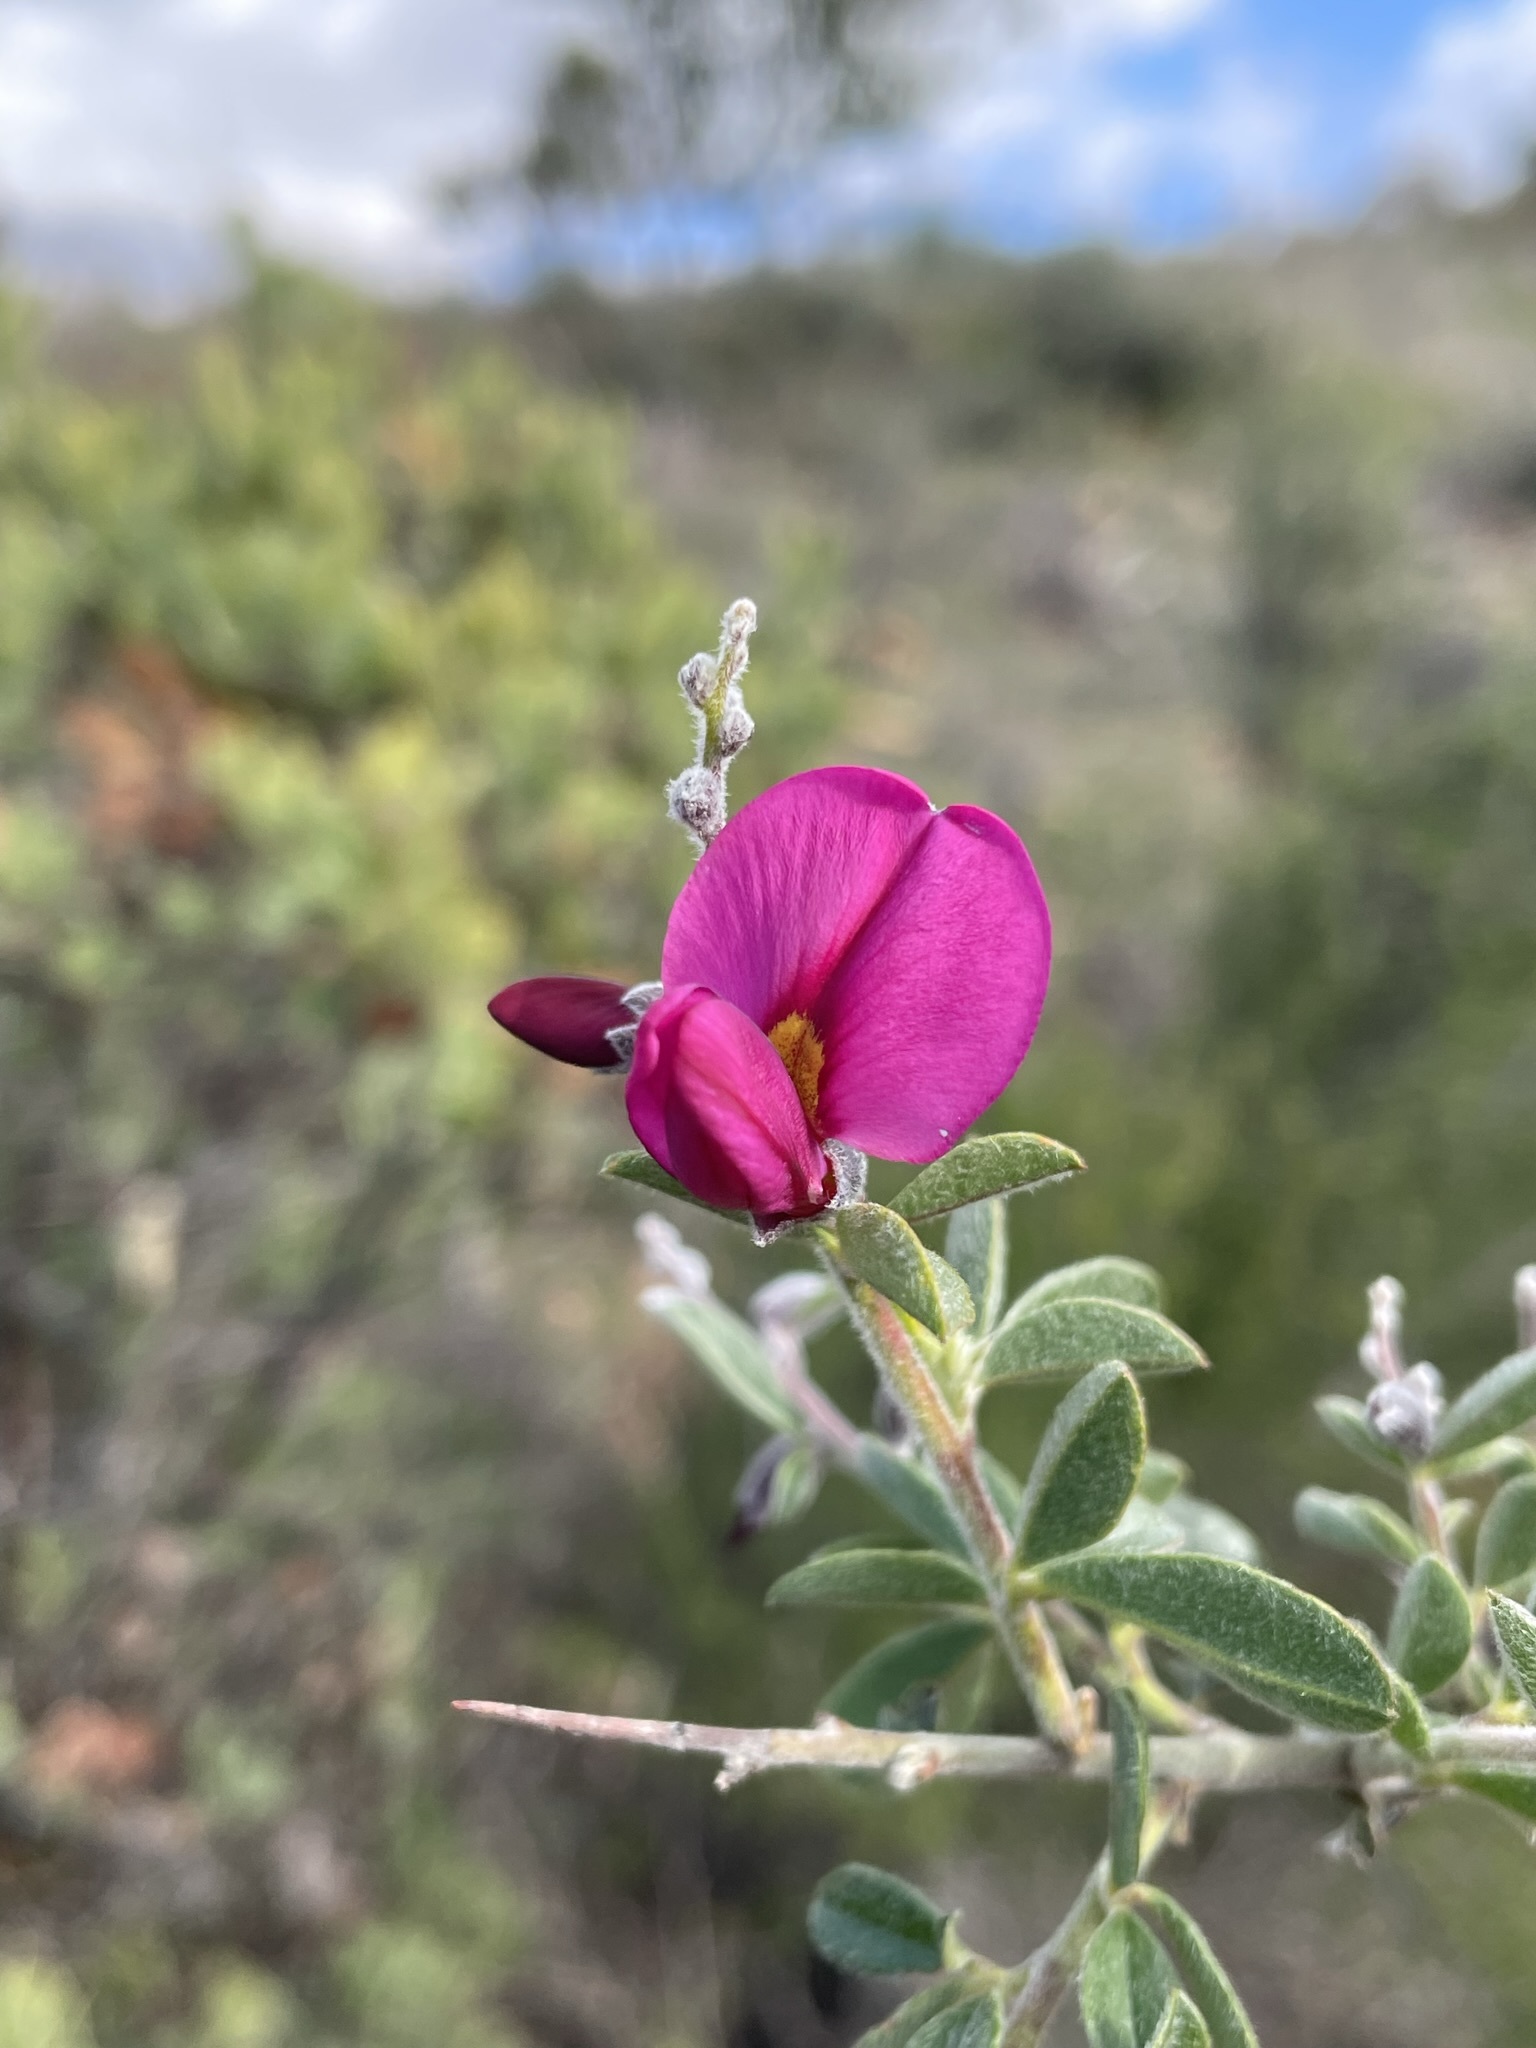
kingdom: Plantae
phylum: Tracheophyta
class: Magnoliopsida
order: Fabales
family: Fabaceae
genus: Pickeringia
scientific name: Pickeringia montana
